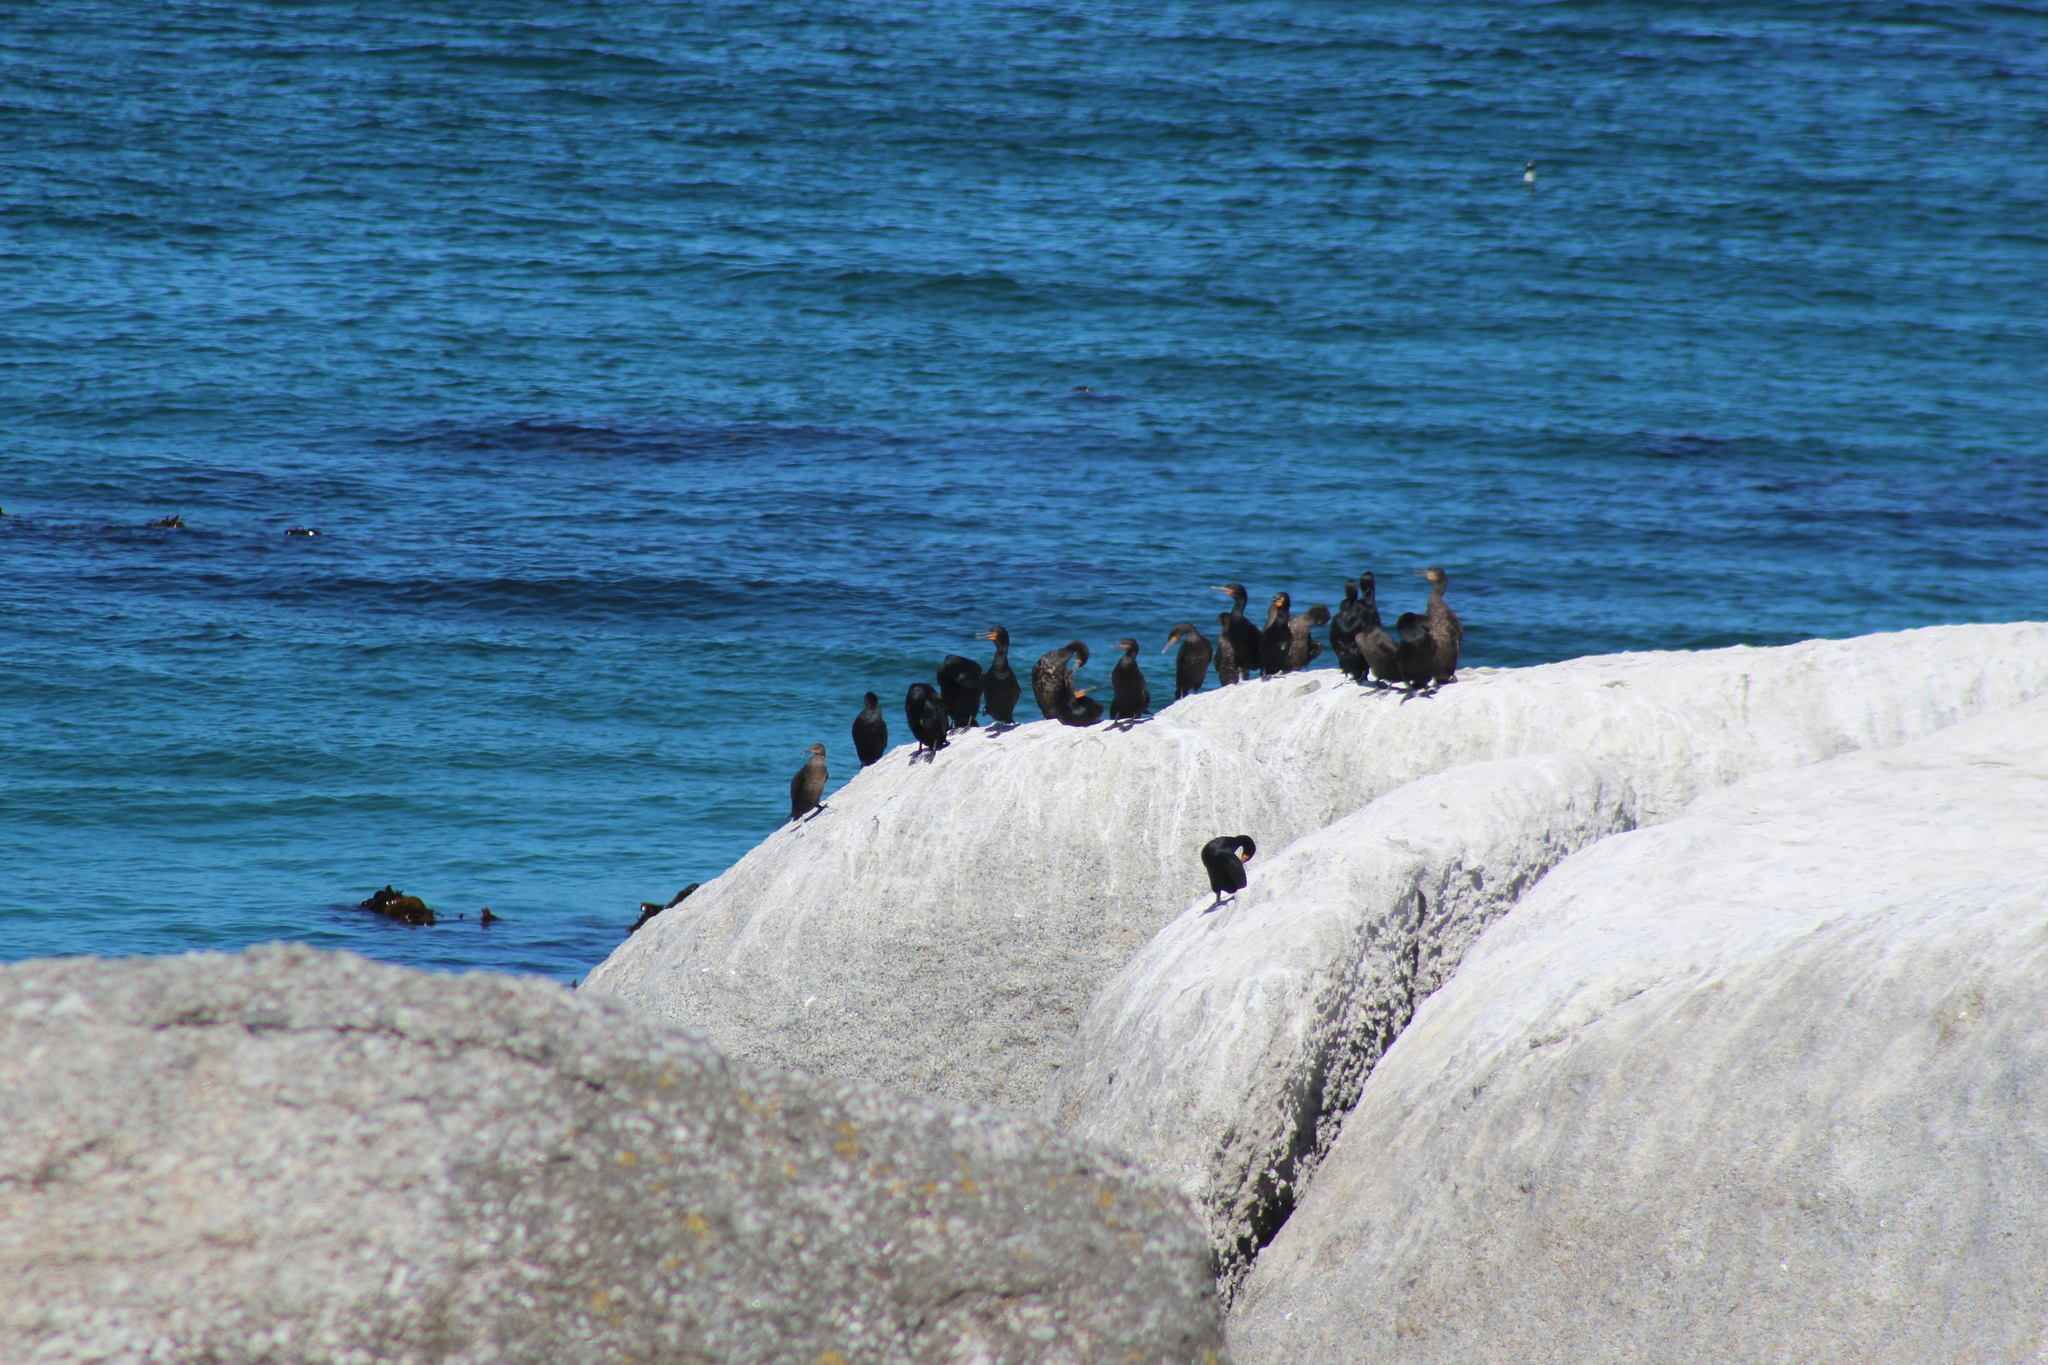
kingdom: Animalia
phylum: Chordata
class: Aves
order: Suliformes
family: Phalacrocoracidae
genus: Phalacrocorax
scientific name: Phalacrocorax capensis
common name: Cape cormorant
